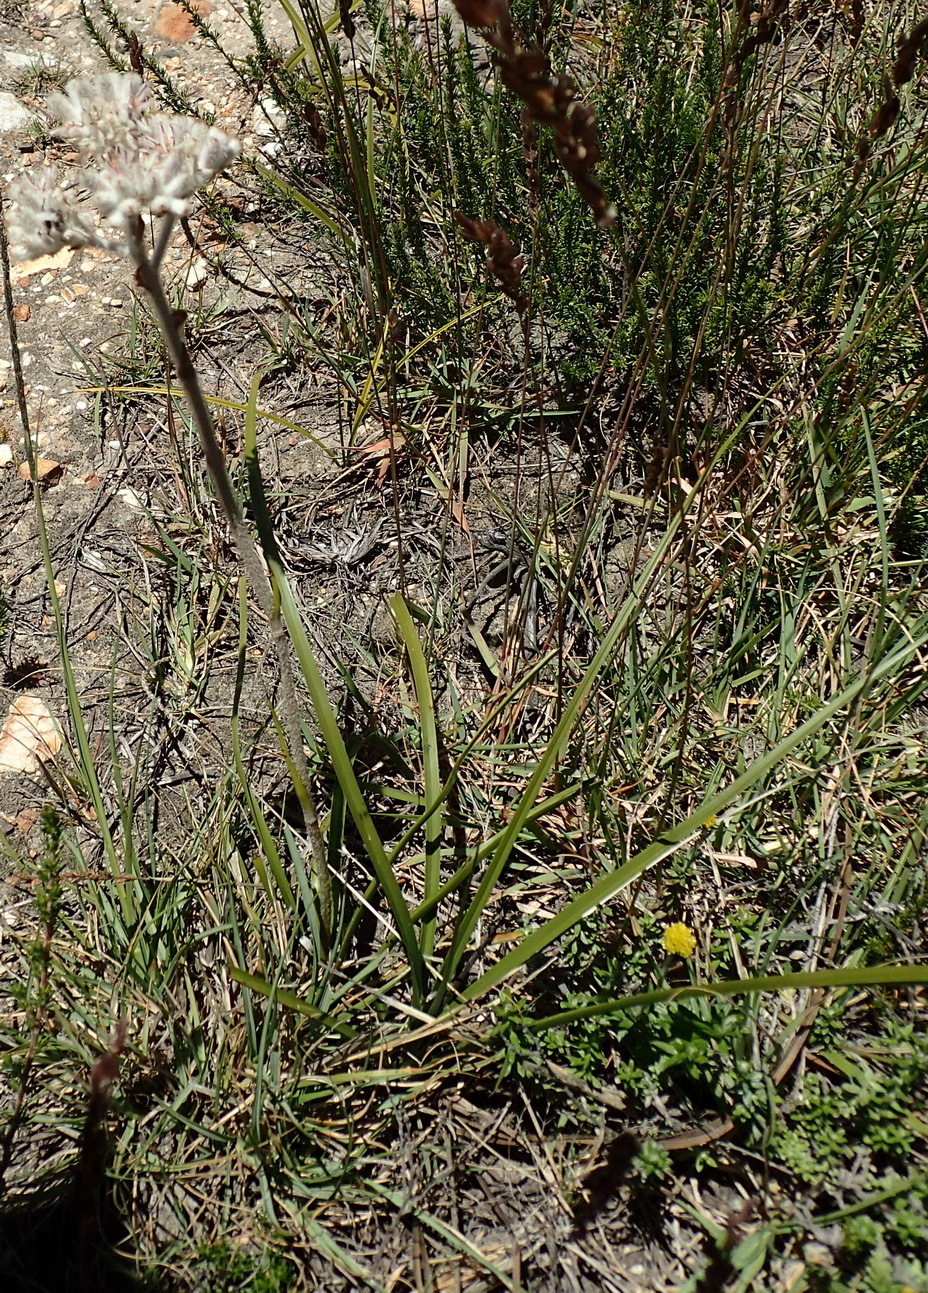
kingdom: Plantae
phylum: Tracheophyta
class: Liliopsida
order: Asparagales
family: Lanariaceae
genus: Lanaria
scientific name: Lanaria lanata
